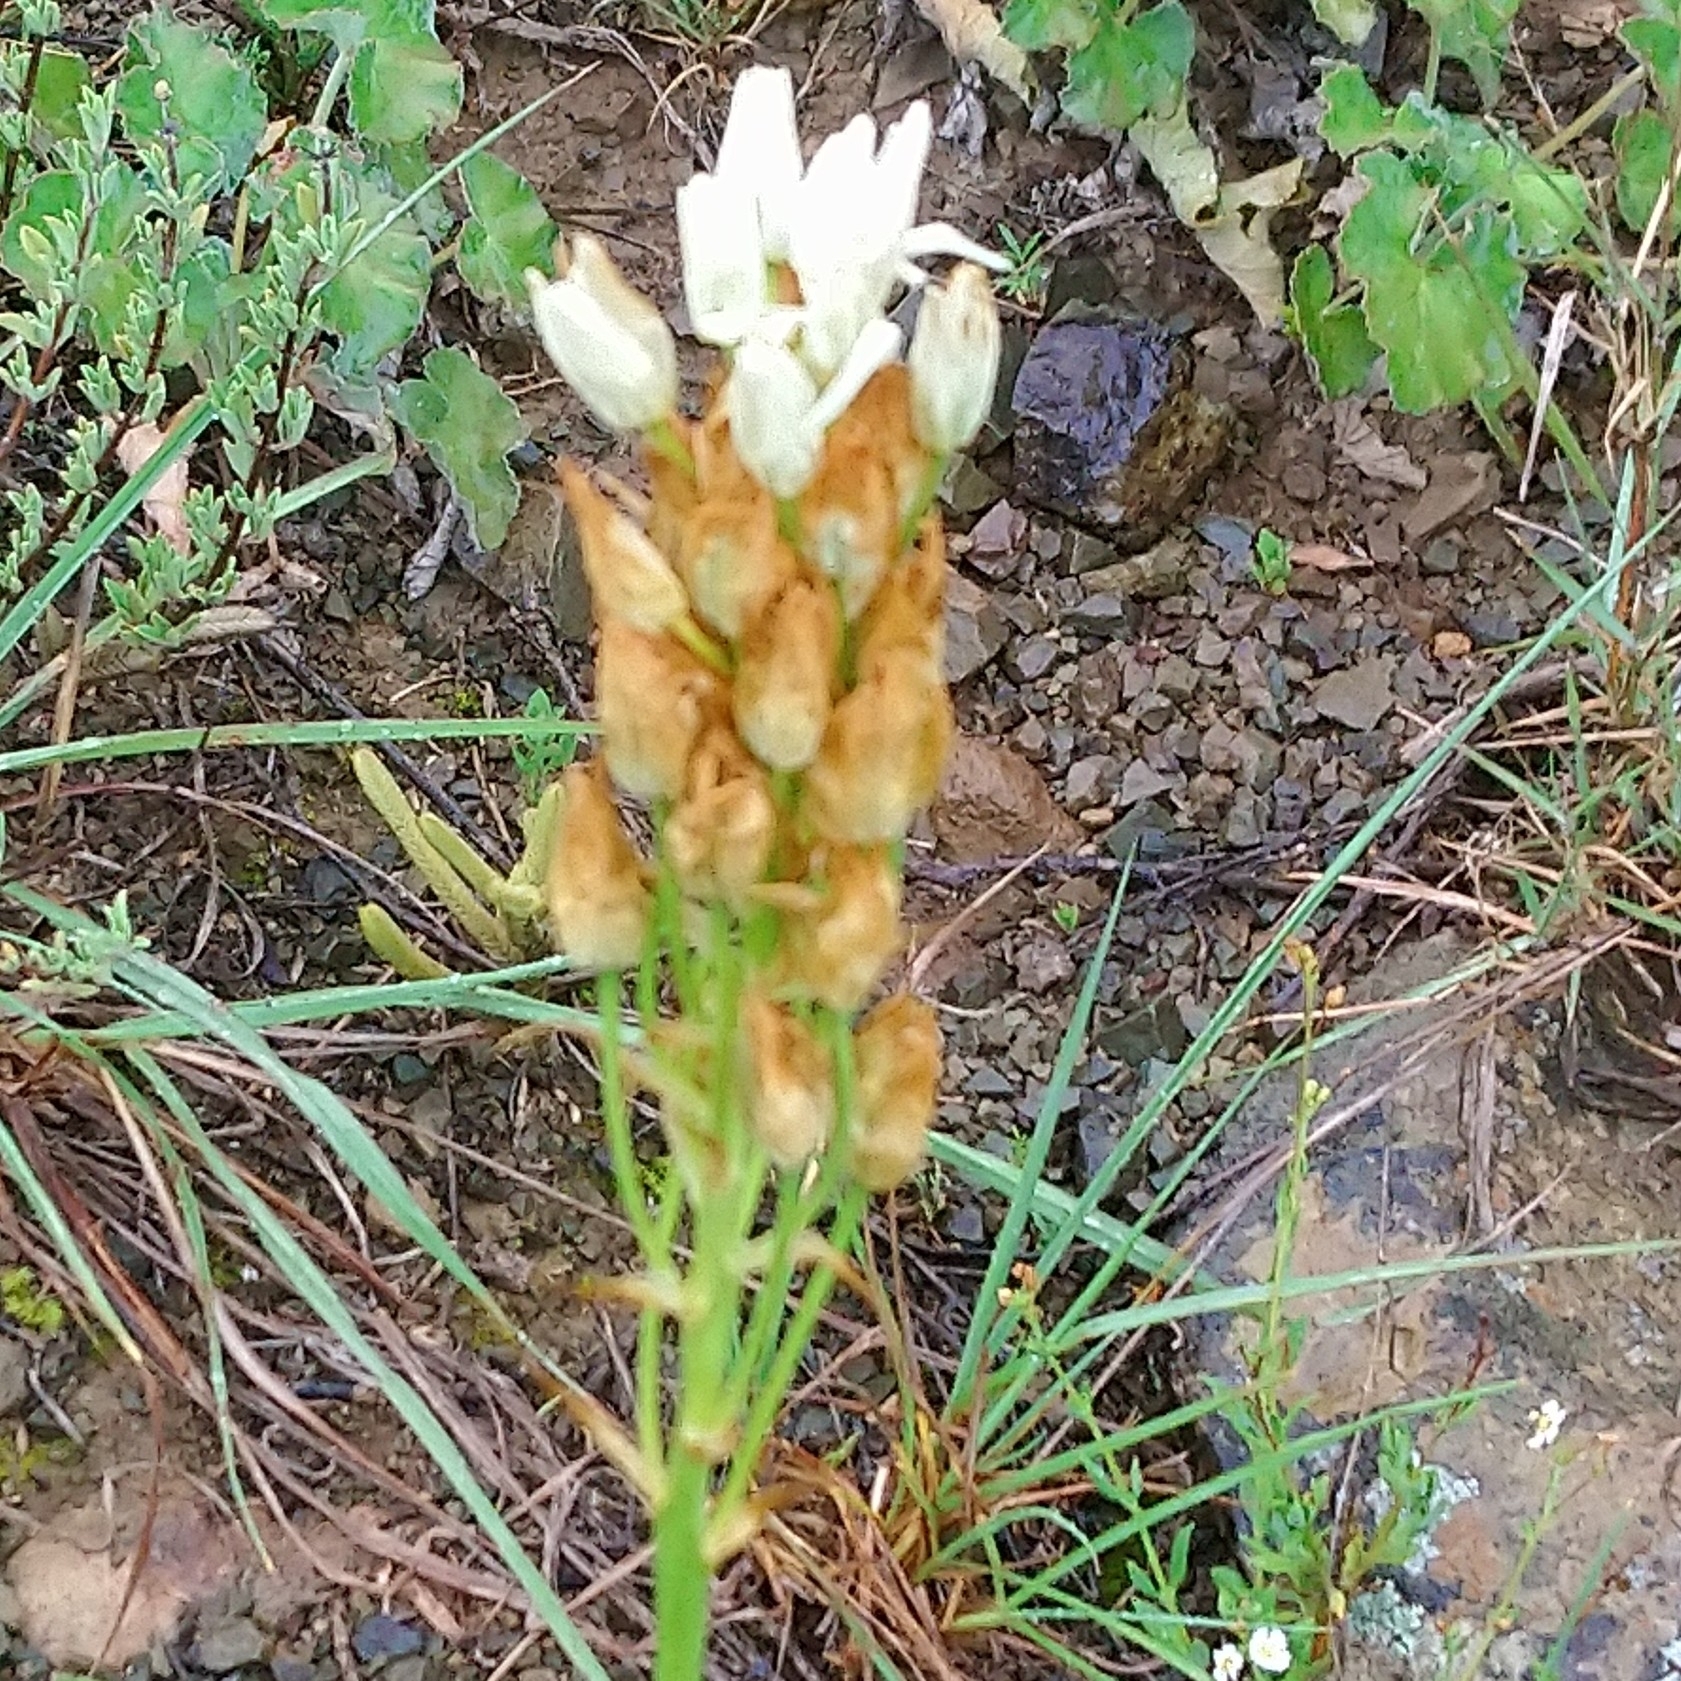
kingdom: Plantae
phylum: Tracheophyta
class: Liliopsida
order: Asparagales
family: Asparagaceae
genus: Ornithogalum
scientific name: Ornithogalum thyrsoides
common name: Chincherinchee
